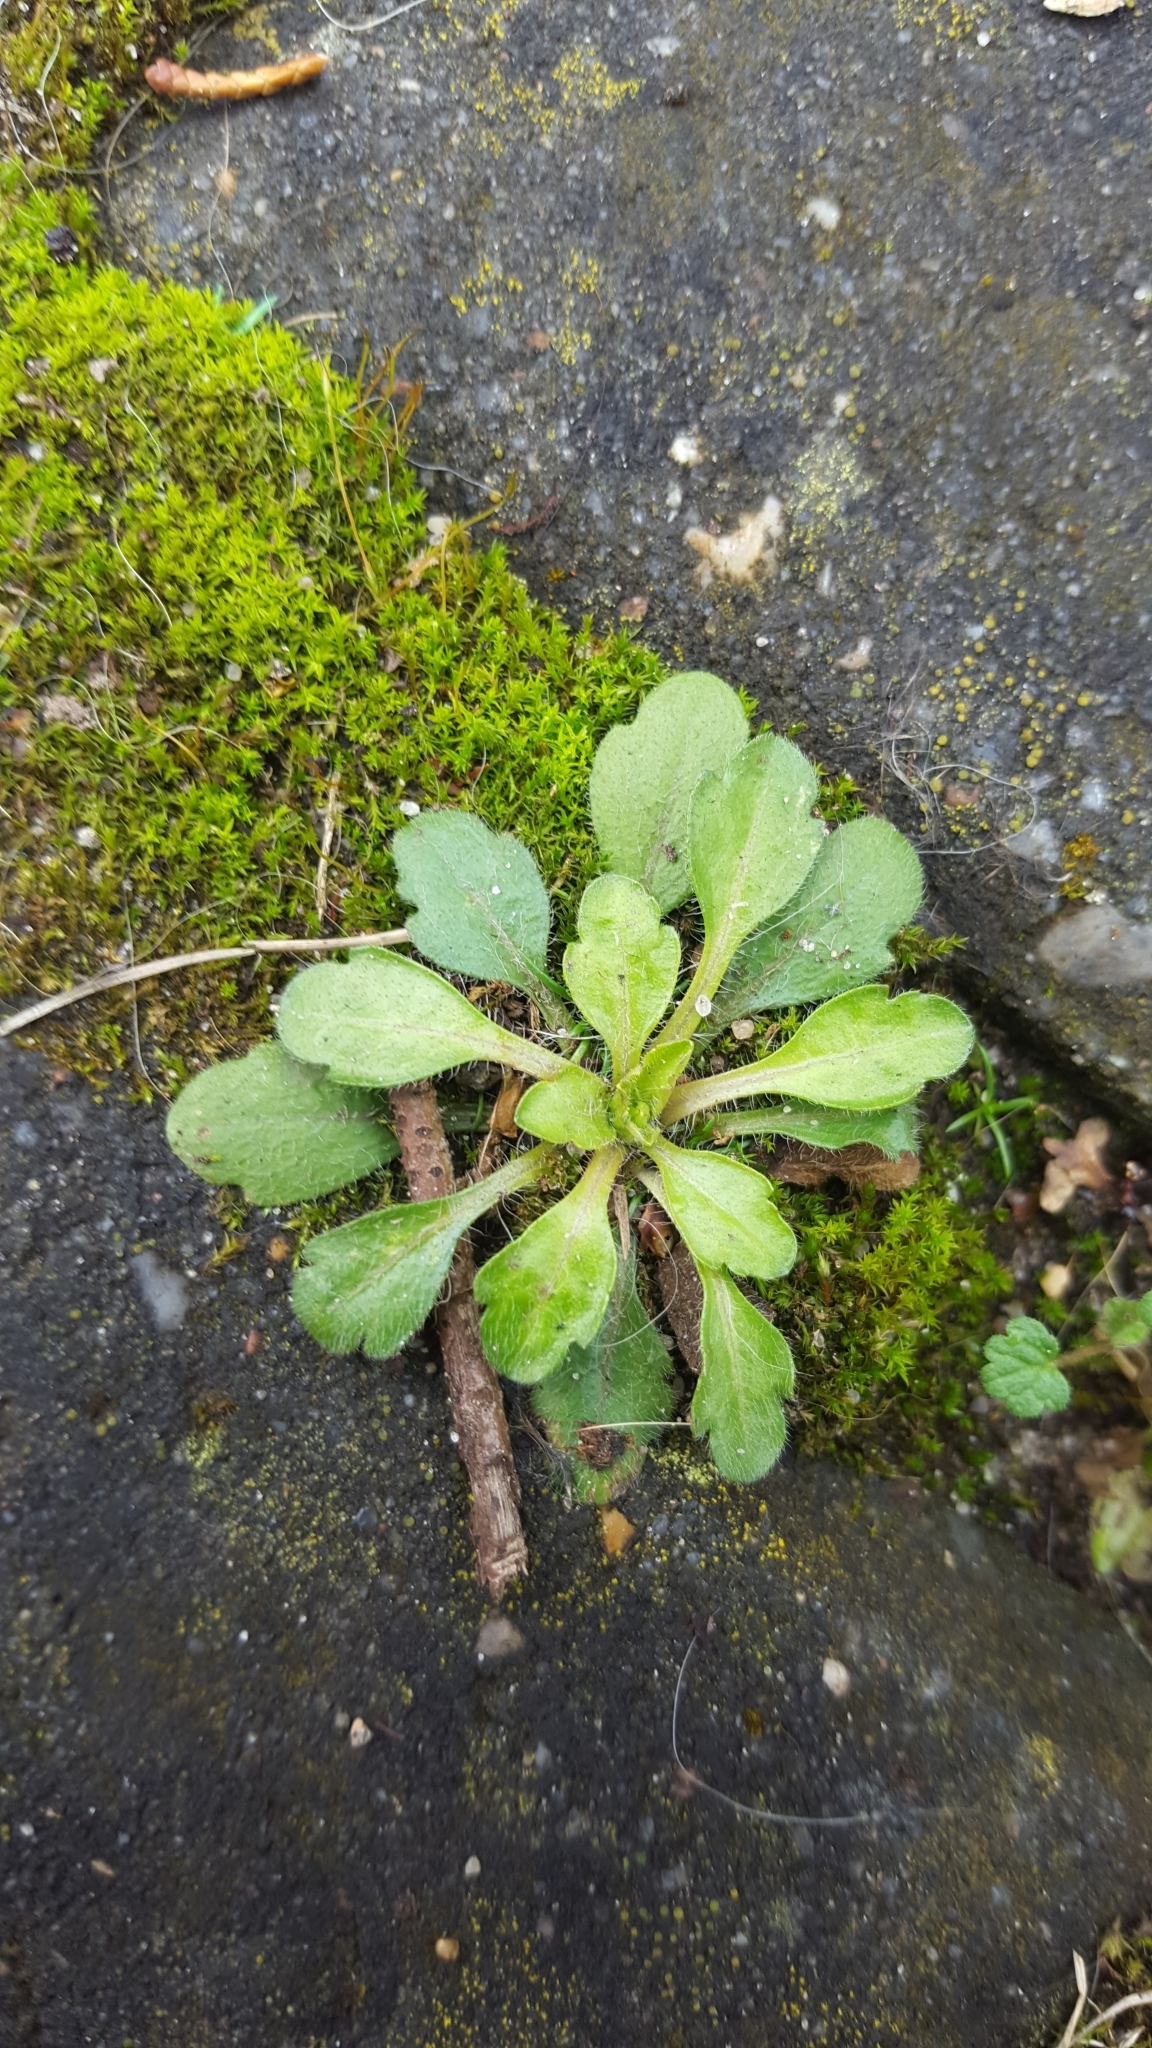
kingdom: Plantae
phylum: Tracheophyta
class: Magnoliopsida
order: Asterales
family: Asteraceae
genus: Erigeron
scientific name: Erigeron canadensis
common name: Canadian fleabane
